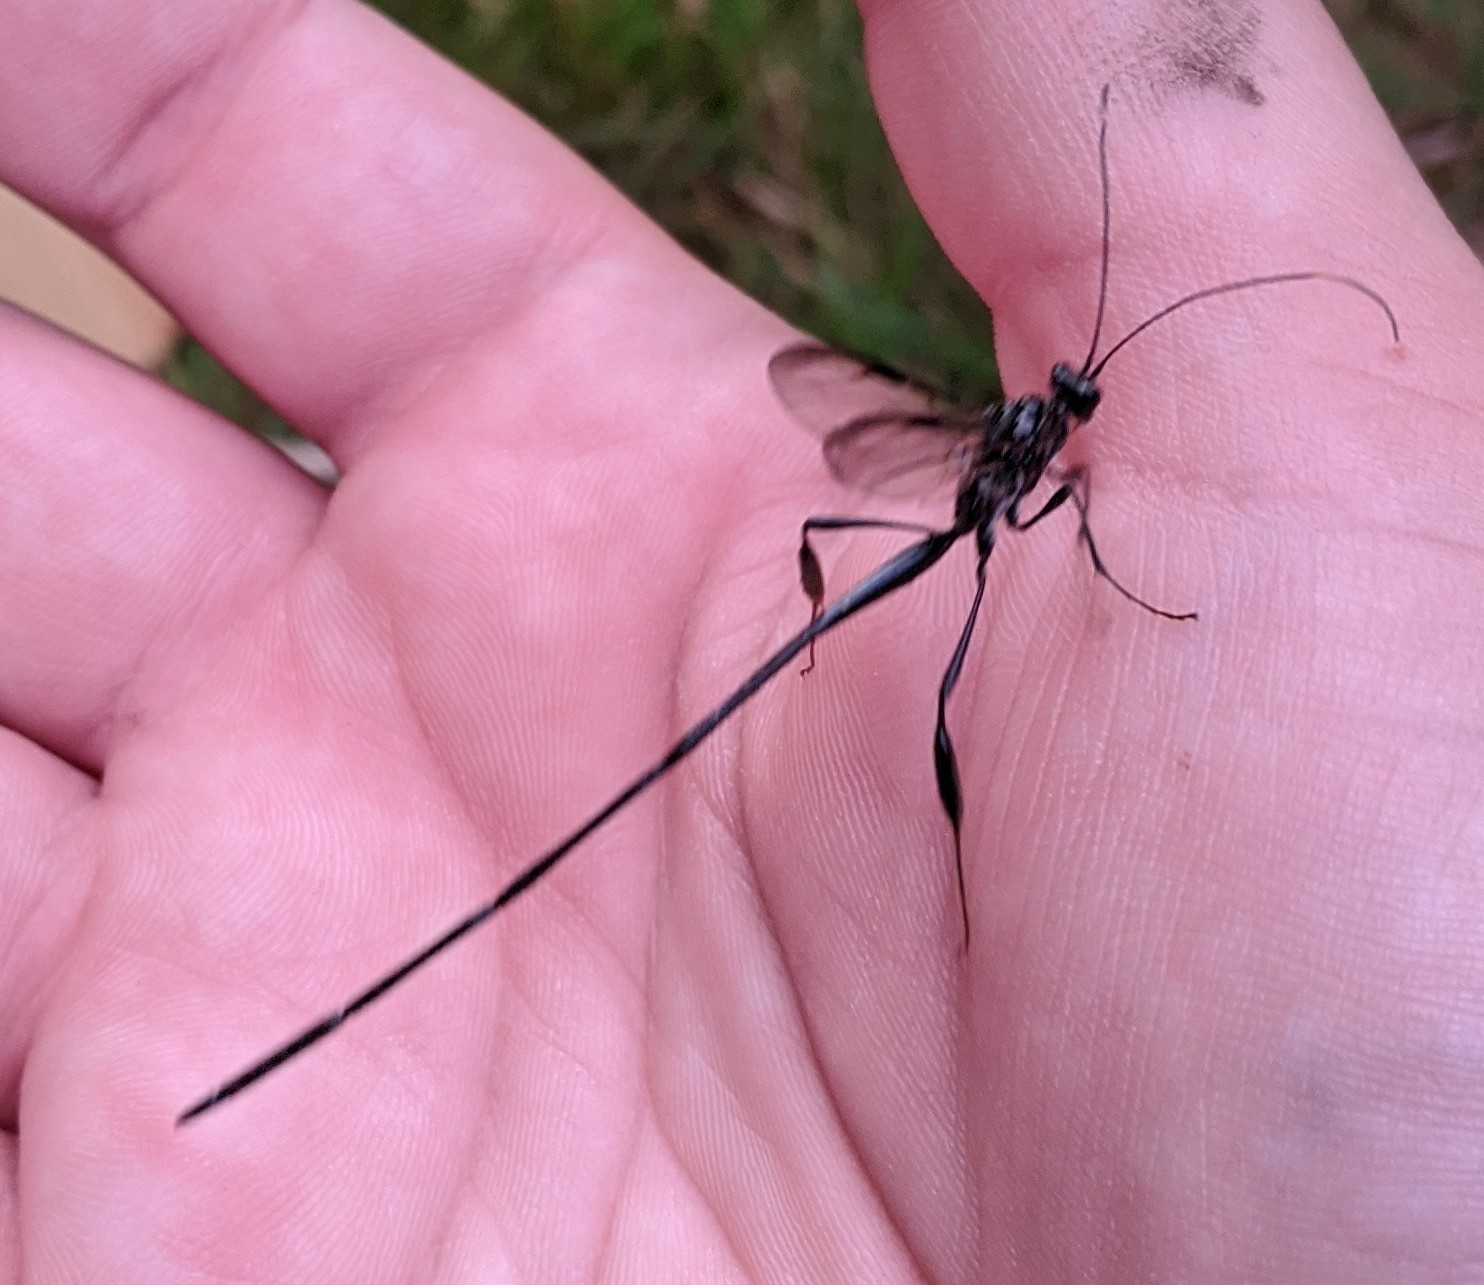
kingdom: Animalia
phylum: Arthropoda
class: Insecta
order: Hymenoptera
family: Pelecinidae
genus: Pelecinus
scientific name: Pelecinus polyturator
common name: American pelecinid wasp
